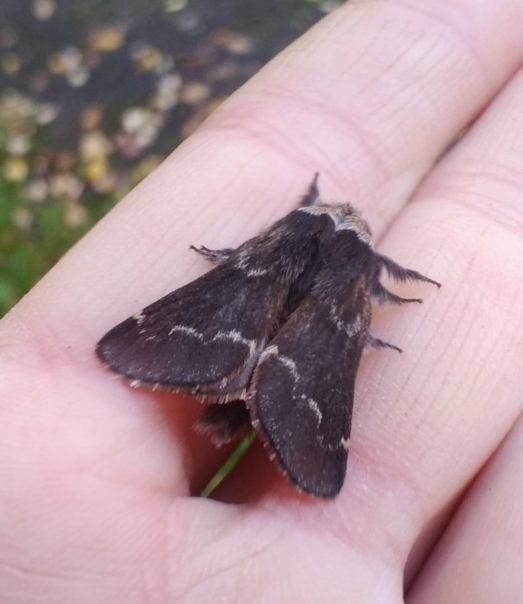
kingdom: Animalia
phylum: Arthropoda
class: Insecta
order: Lepidoptera
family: Lasiocampidae
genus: Poecilocampa
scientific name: Poecilocampa populi
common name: December moth
